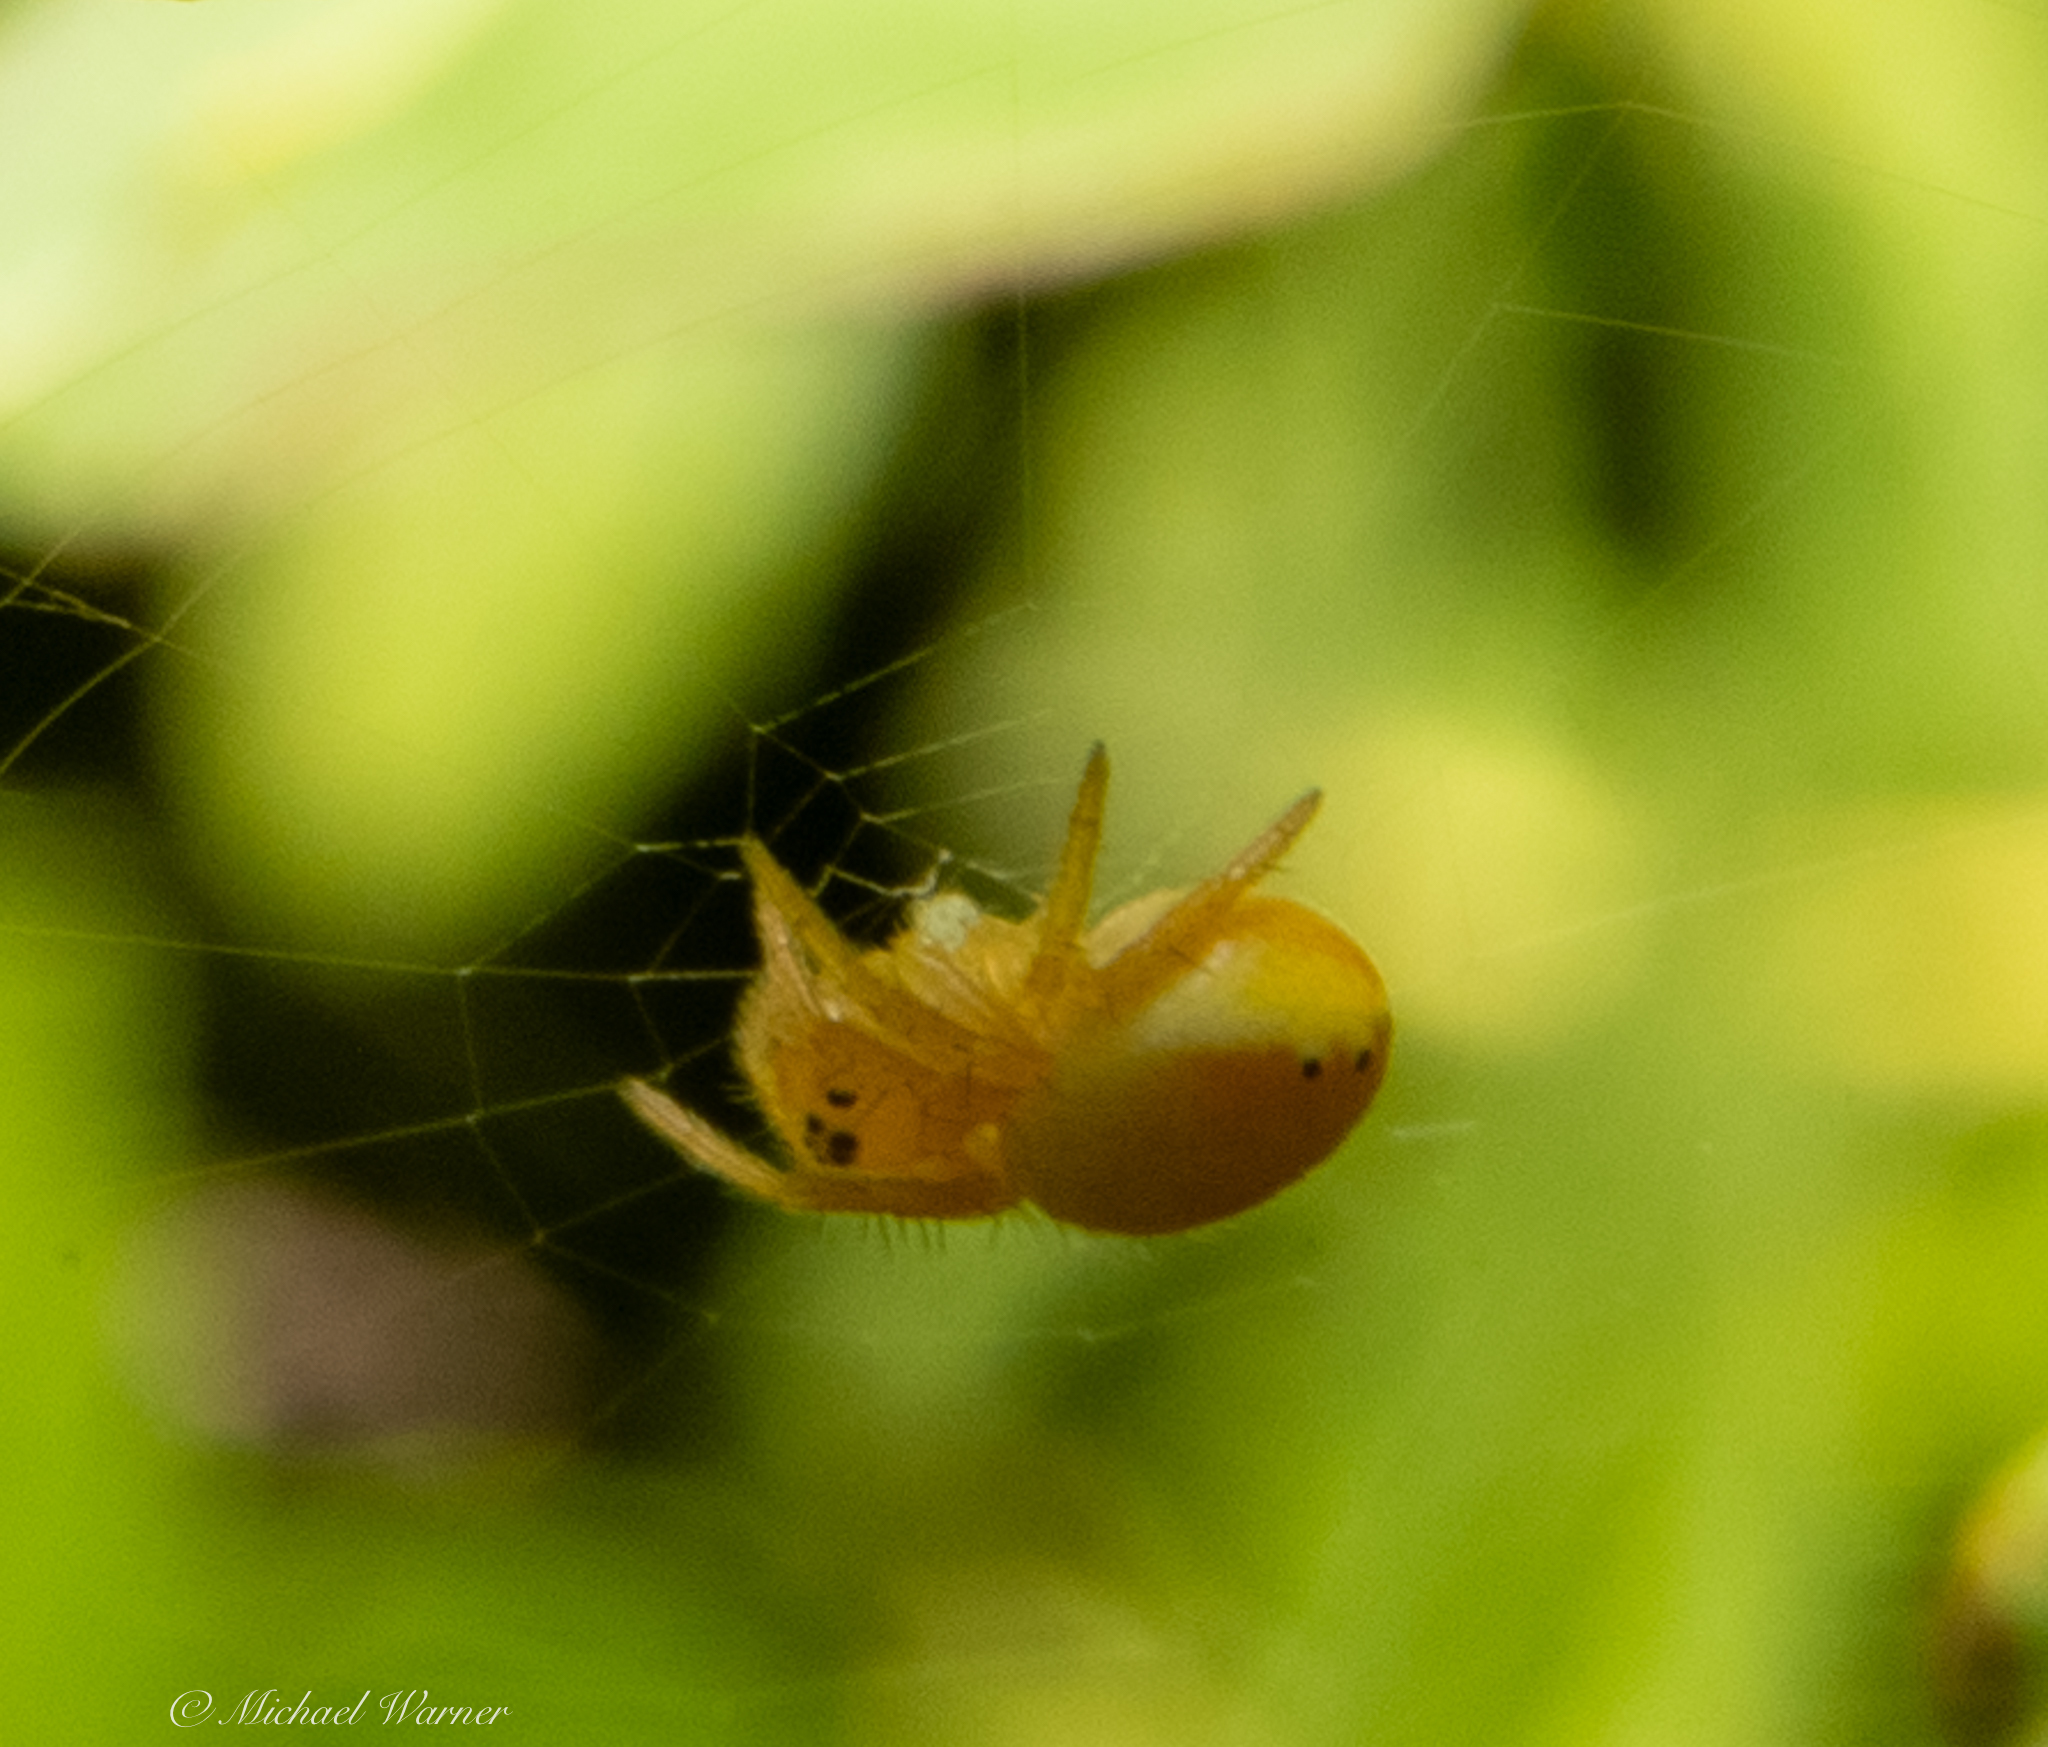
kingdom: Animalia
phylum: Arthropoda
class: Arachnida
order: Araneae
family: Araneidae
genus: Araniella
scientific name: Araniella displicata
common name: Sixspotted orb weaver
